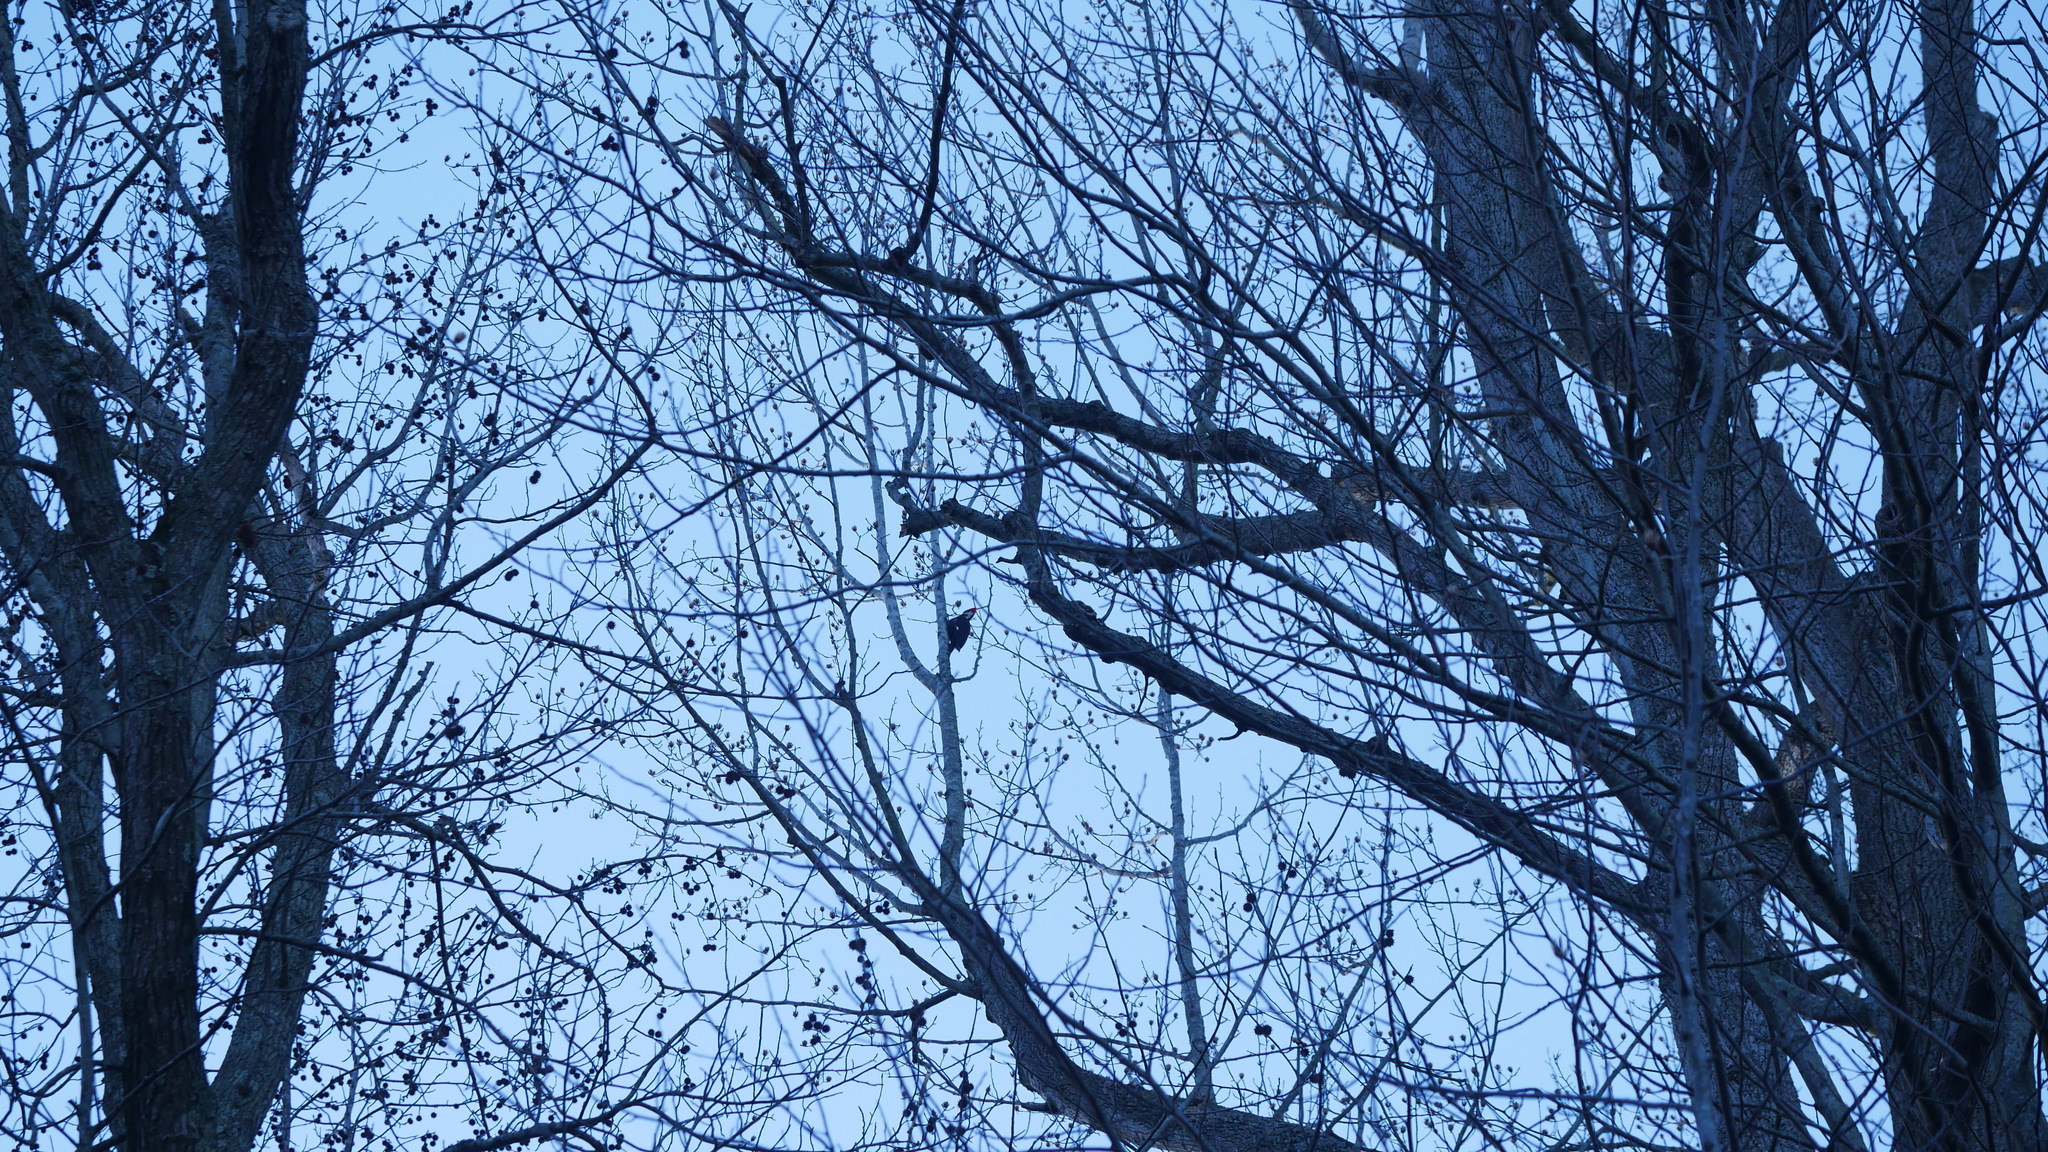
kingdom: Animalia
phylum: Chordata
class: Aves
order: Piciformes
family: Picidae
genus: Dryocopus
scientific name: Dryocopus pileatus
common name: Pileated woodpecker
